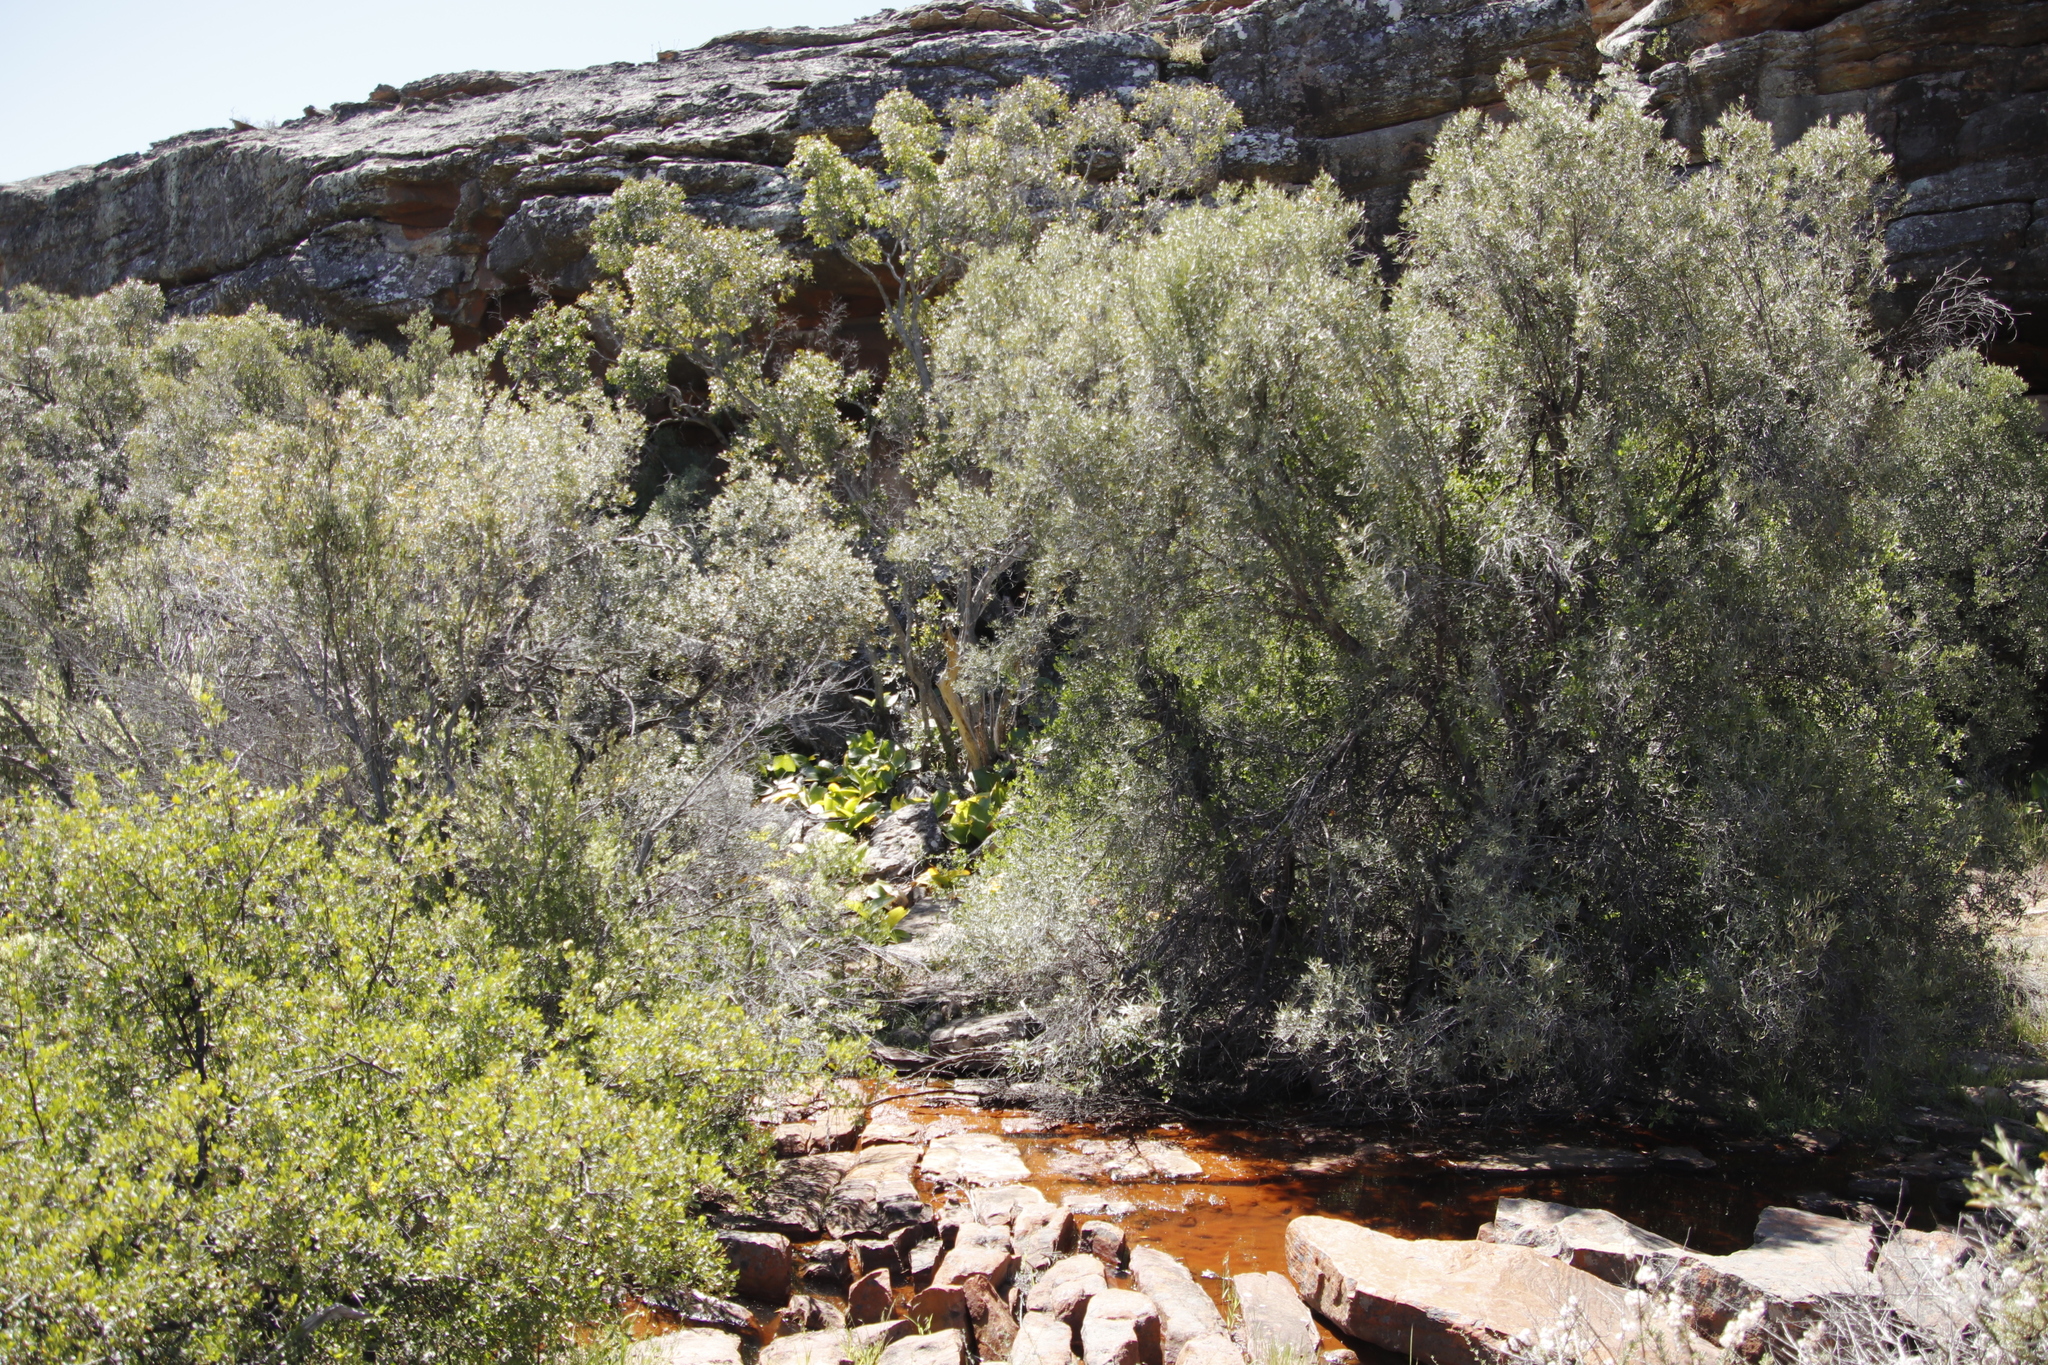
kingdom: Plantae
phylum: Tracheophyta
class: Magnoliopsida
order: Lamiales
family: Oleaceae
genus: Olea
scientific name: Olea europaea
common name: Olive
